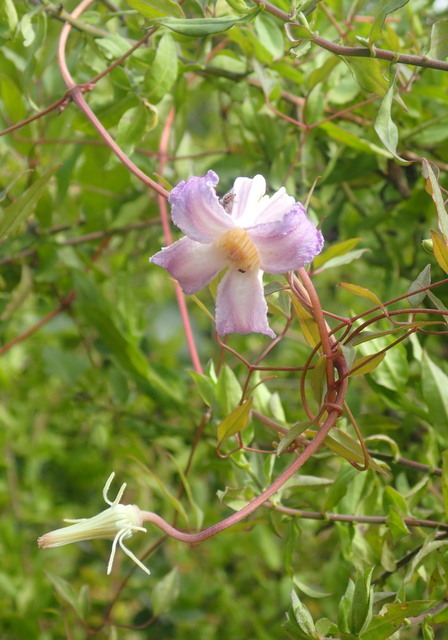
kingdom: Plantae
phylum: Tracheophyta
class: Magnoliopsida
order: Ranunculales
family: Ranunculaceae
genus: Clematis
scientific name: Clematis crispa
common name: Curly clematis
